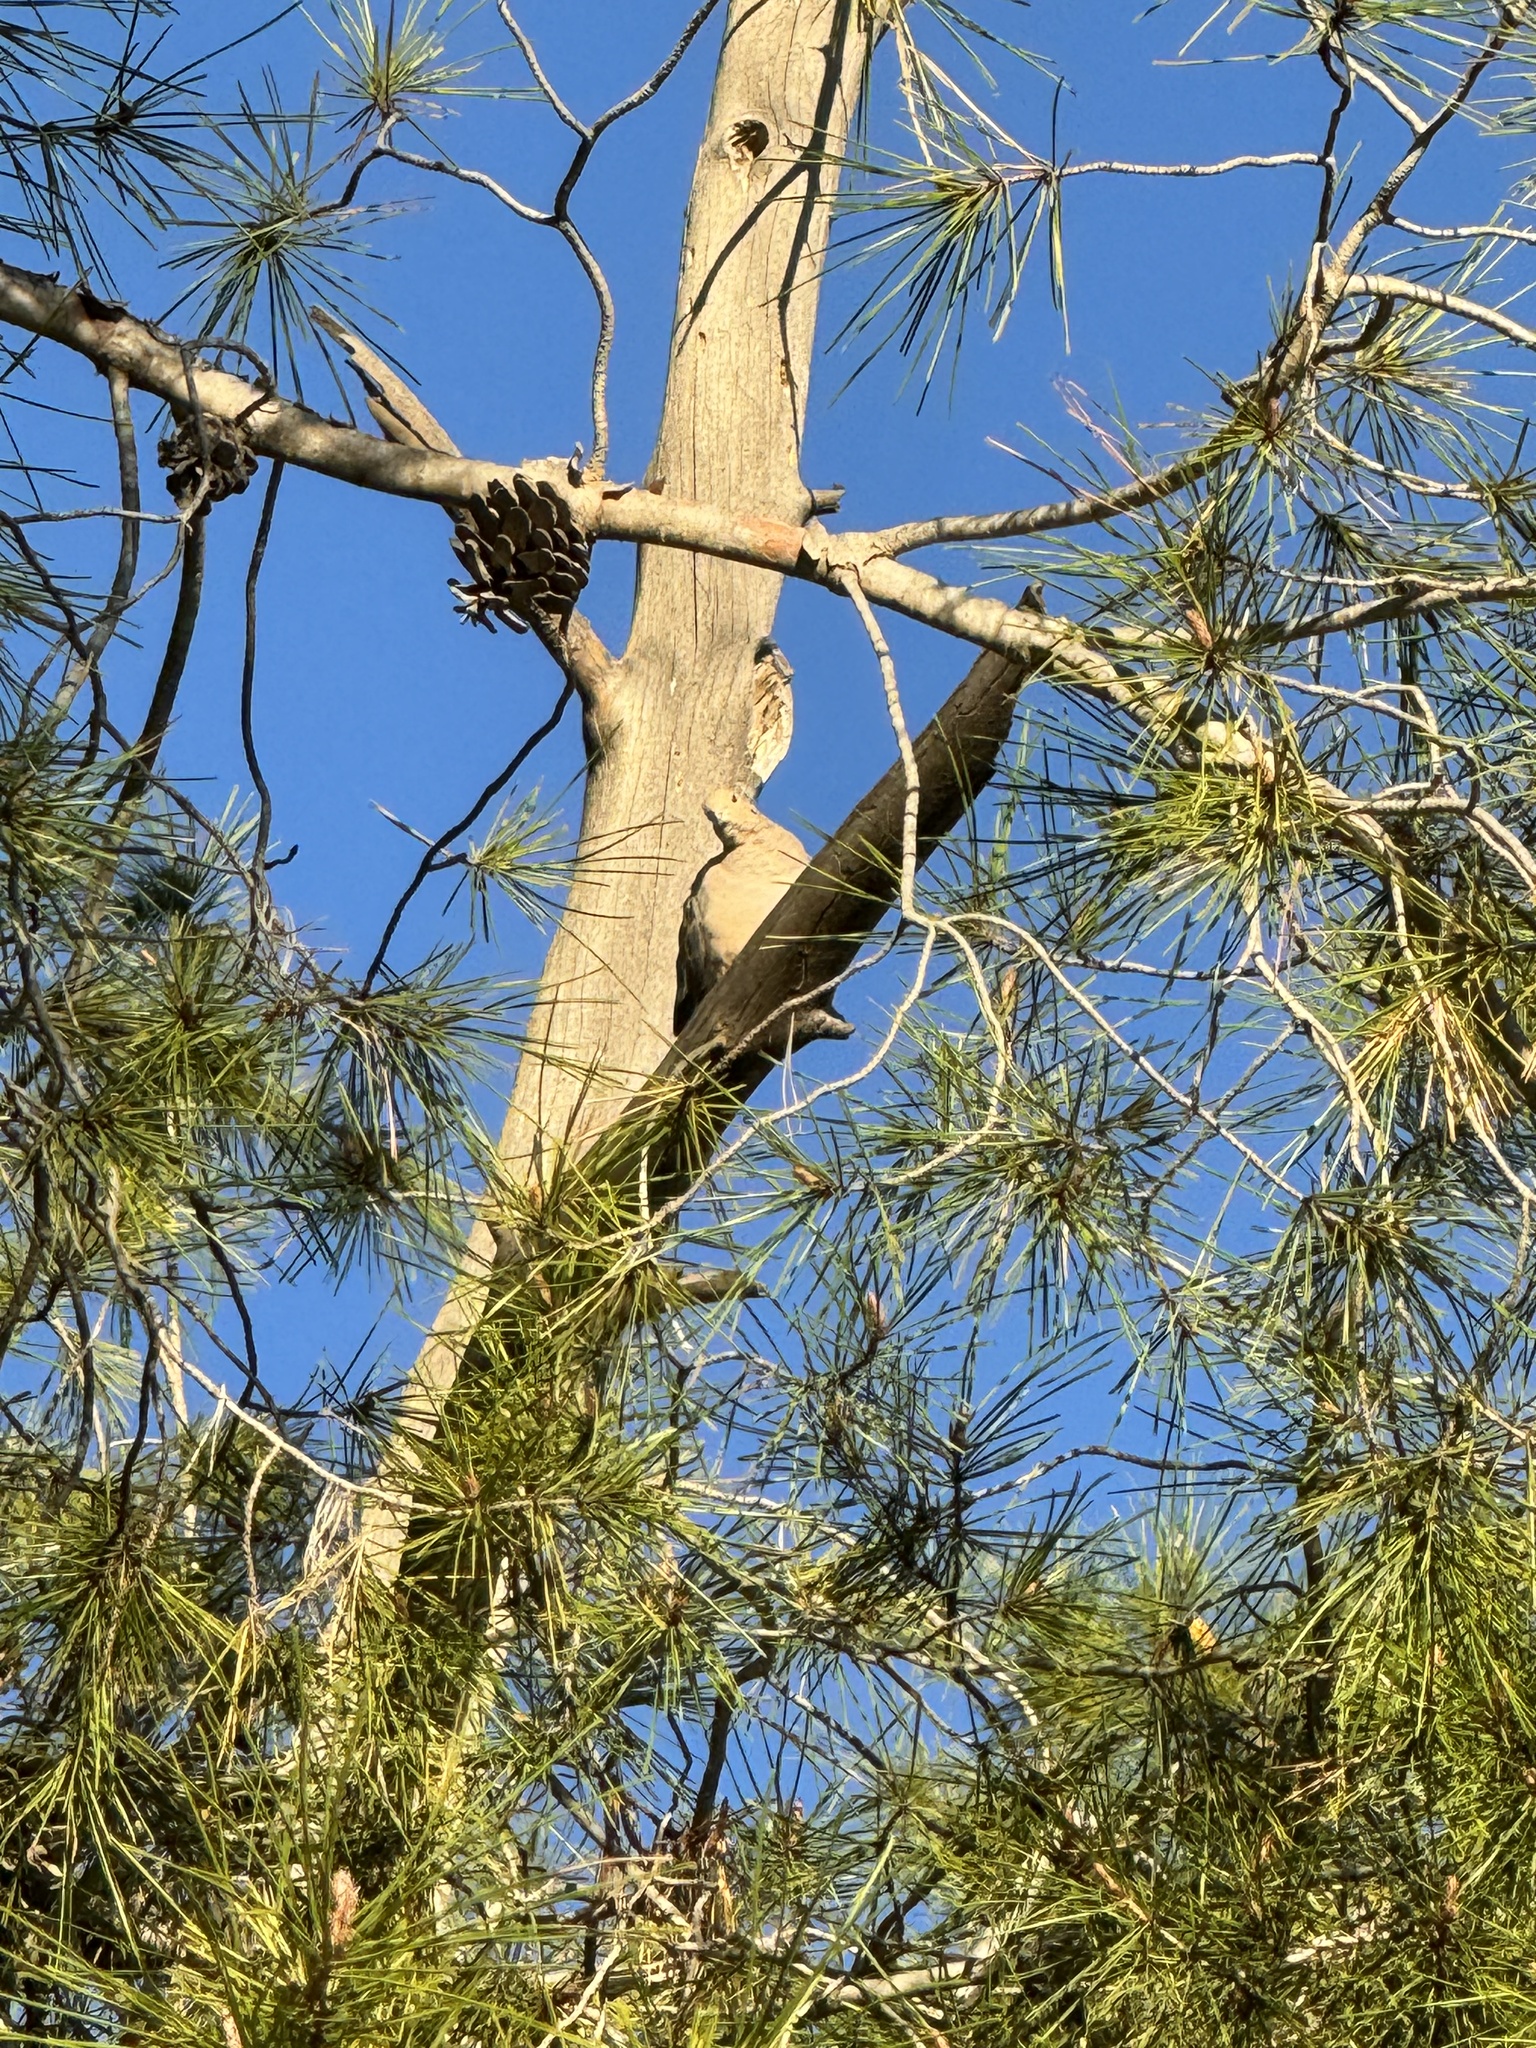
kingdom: Animalia
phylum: Chordata
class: Aves
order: Columbiformes
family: Columbidae
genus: Zenaida
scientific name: Zenaida macroura
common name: Mourning dove
